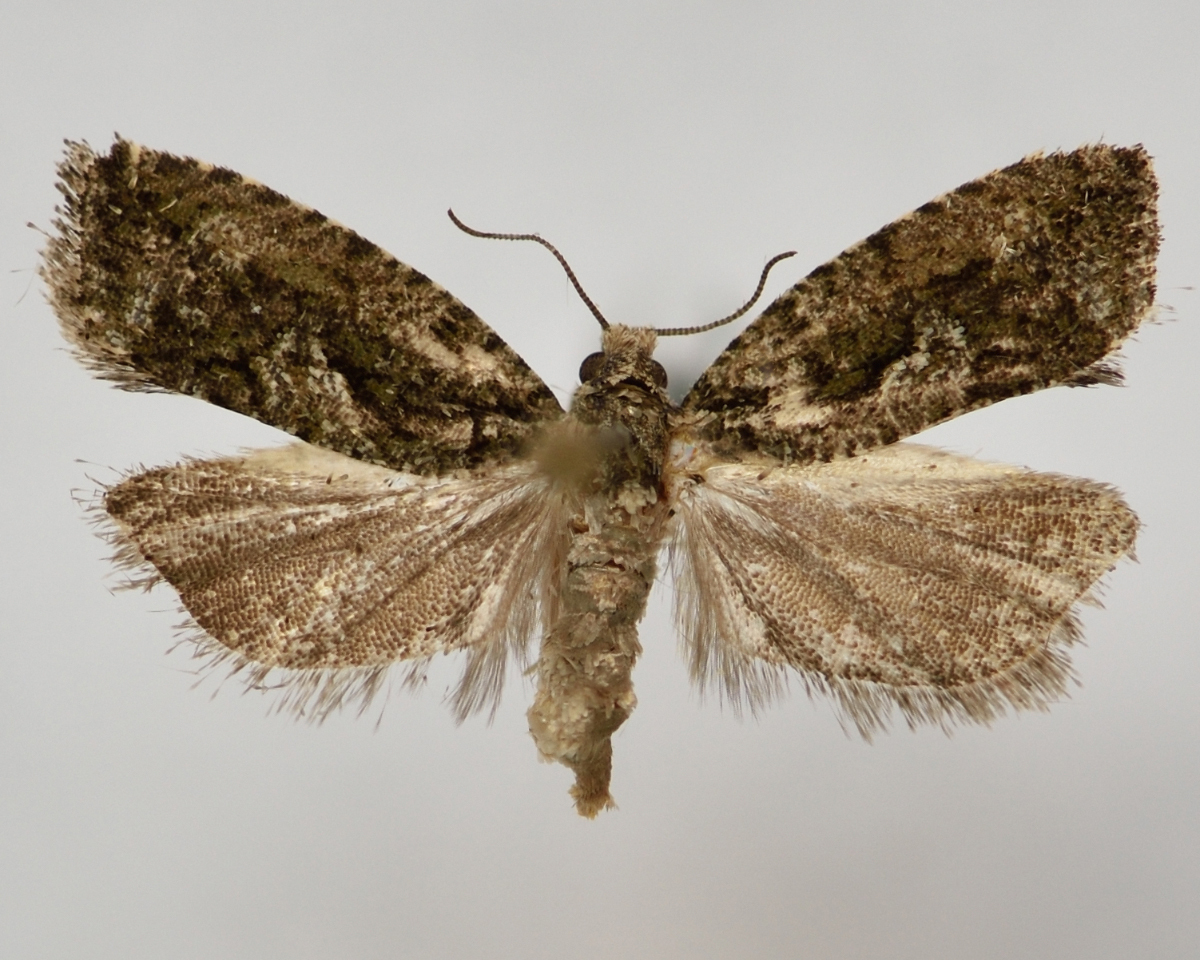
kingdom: Animalia
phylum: Arthropoda
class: Insecta
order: Lepidoptera
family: Tortricidae
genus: Zeiraphera
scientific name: Zeiraphera isertana
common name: Cock's-head bell
